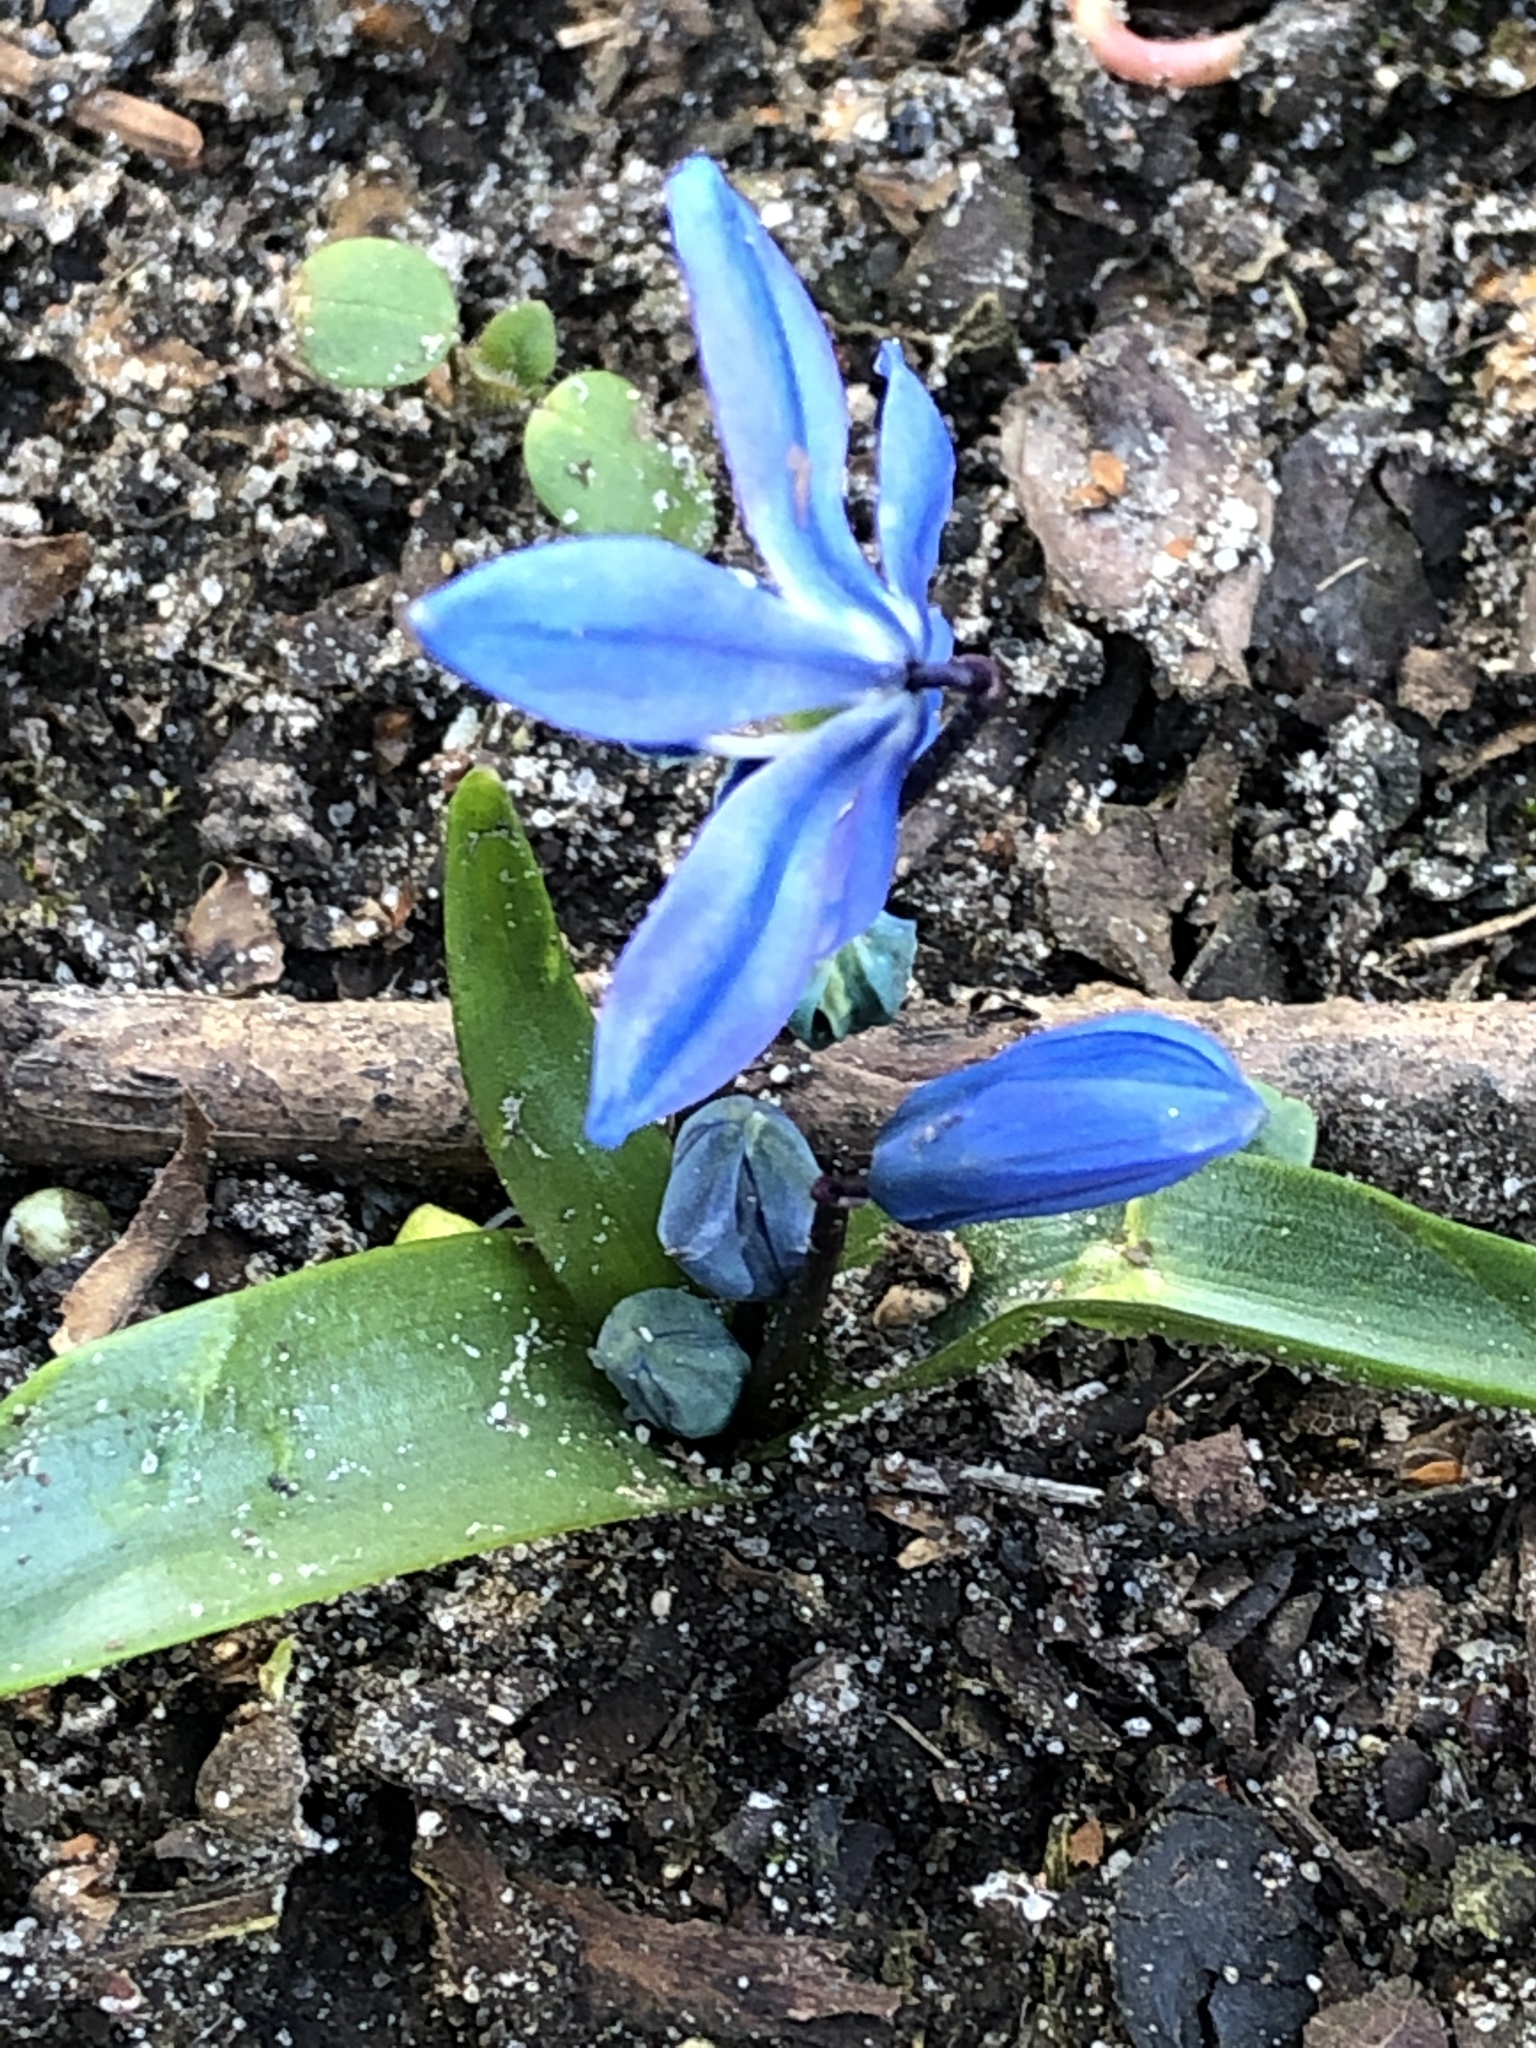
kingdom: Plantae
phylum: Tracheophyta
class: Liliopsida
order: Asparagales
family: Asparagaceae
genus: Scilla
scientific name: Scilla siberica
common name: Siberian squill
